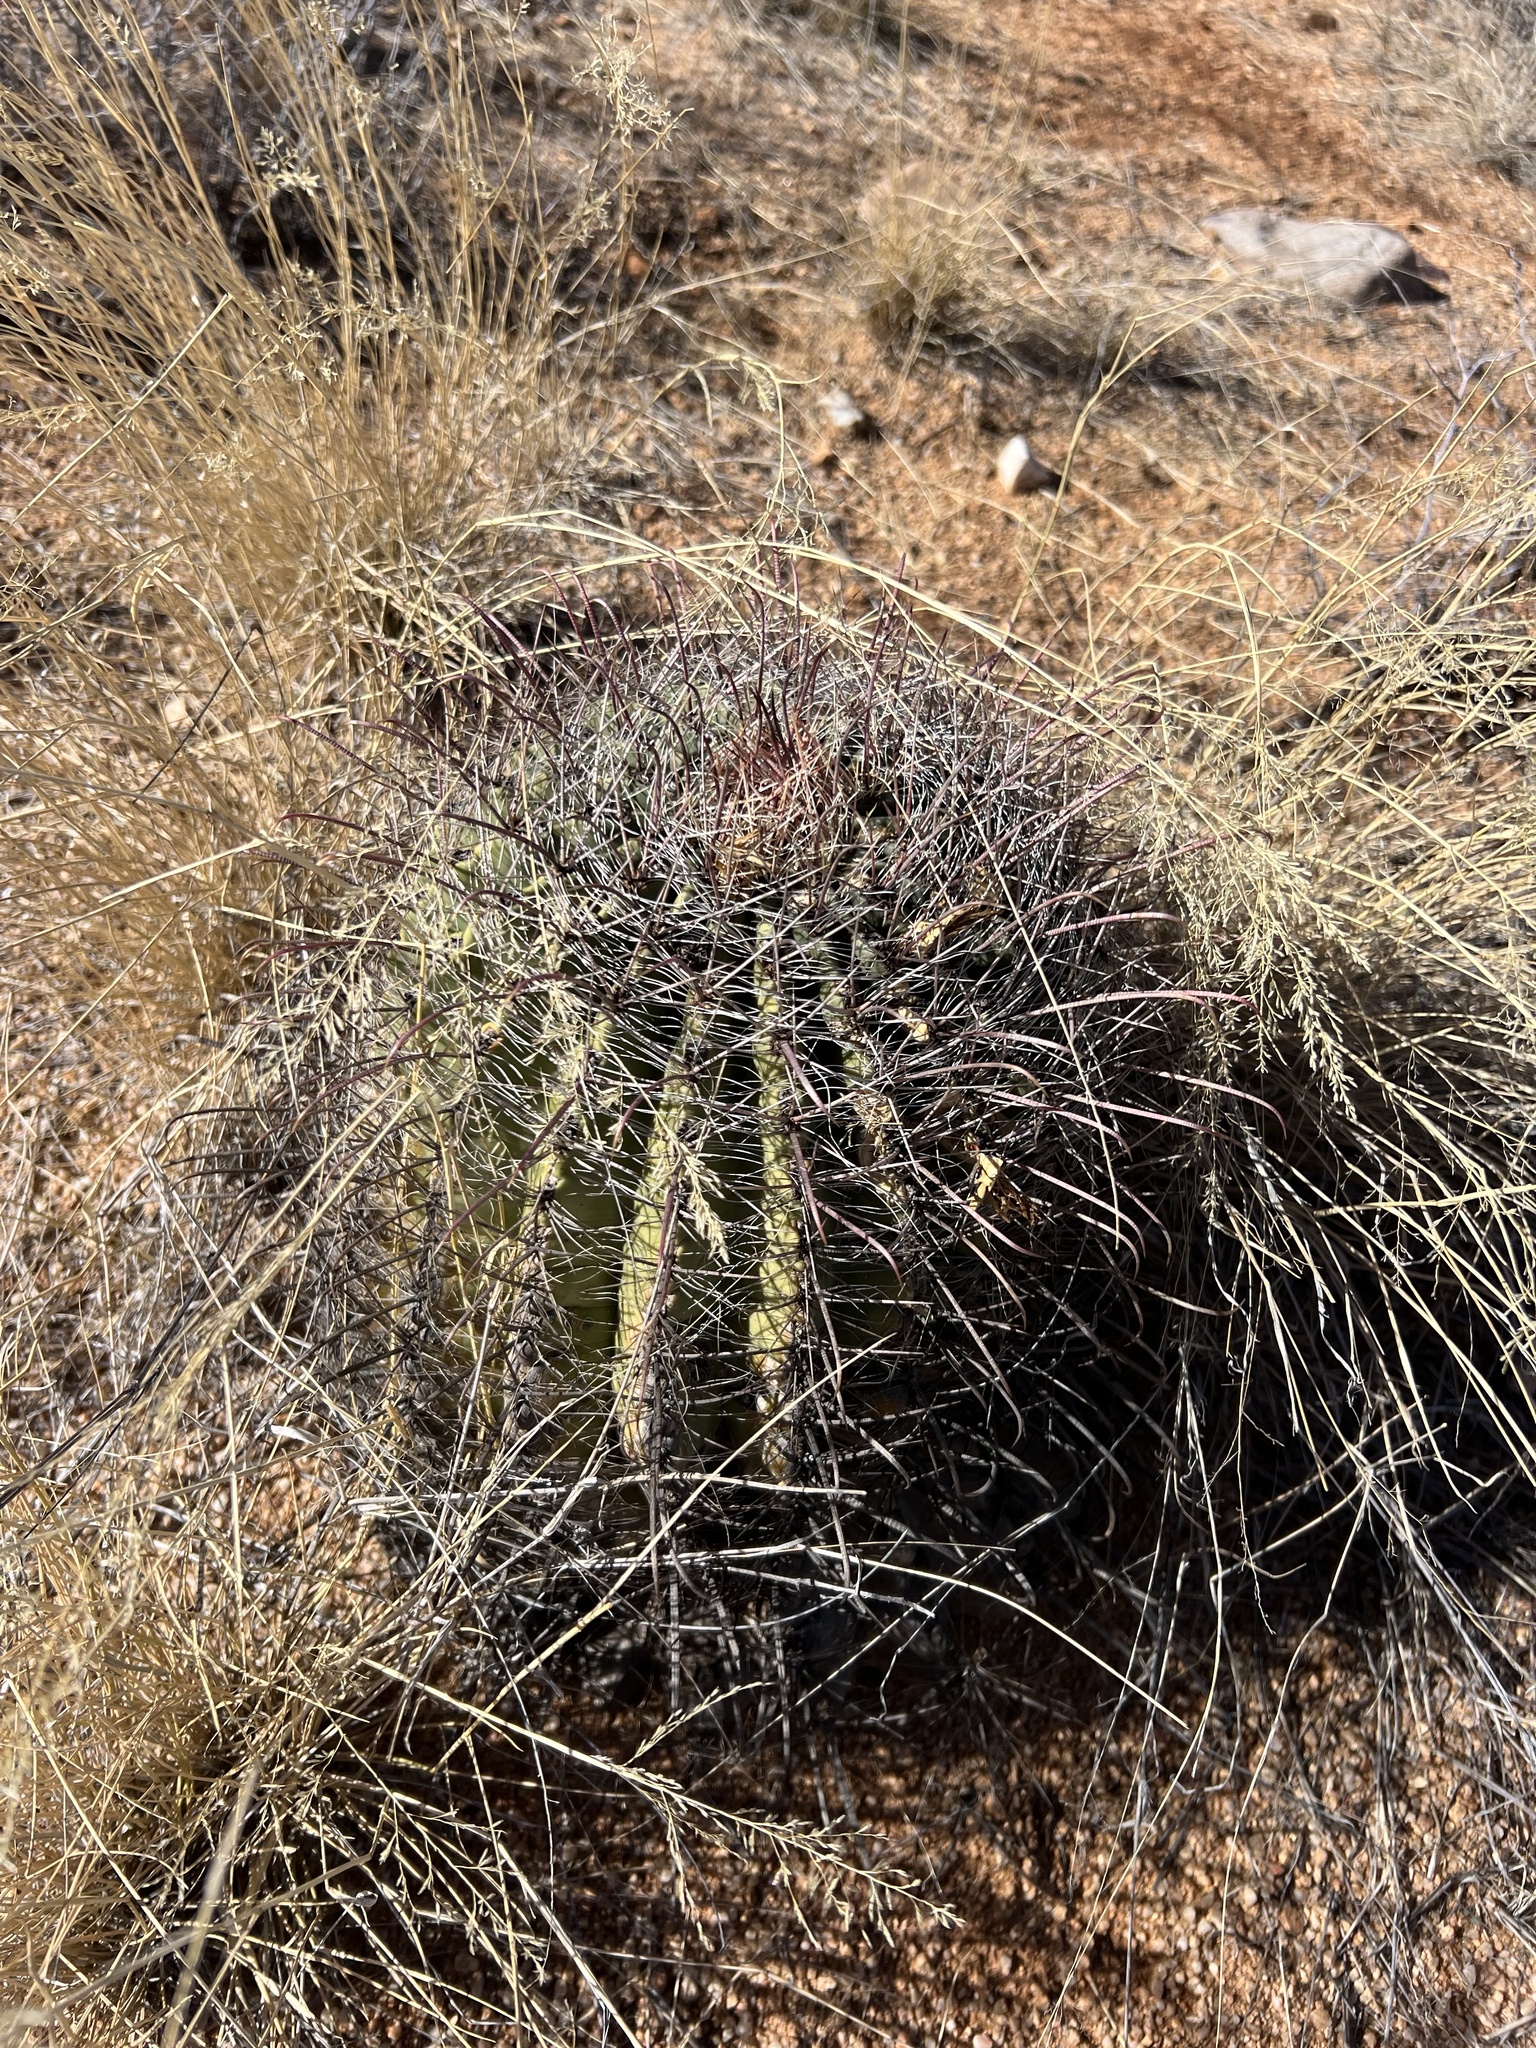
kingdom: Plantae
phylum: Tracheophyta
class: Magnoliopsida
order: Caryophyllales
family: Cactaceae
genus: Ferocactus
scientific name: Ferocactus wislizeni
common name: Candy barrel cactus
